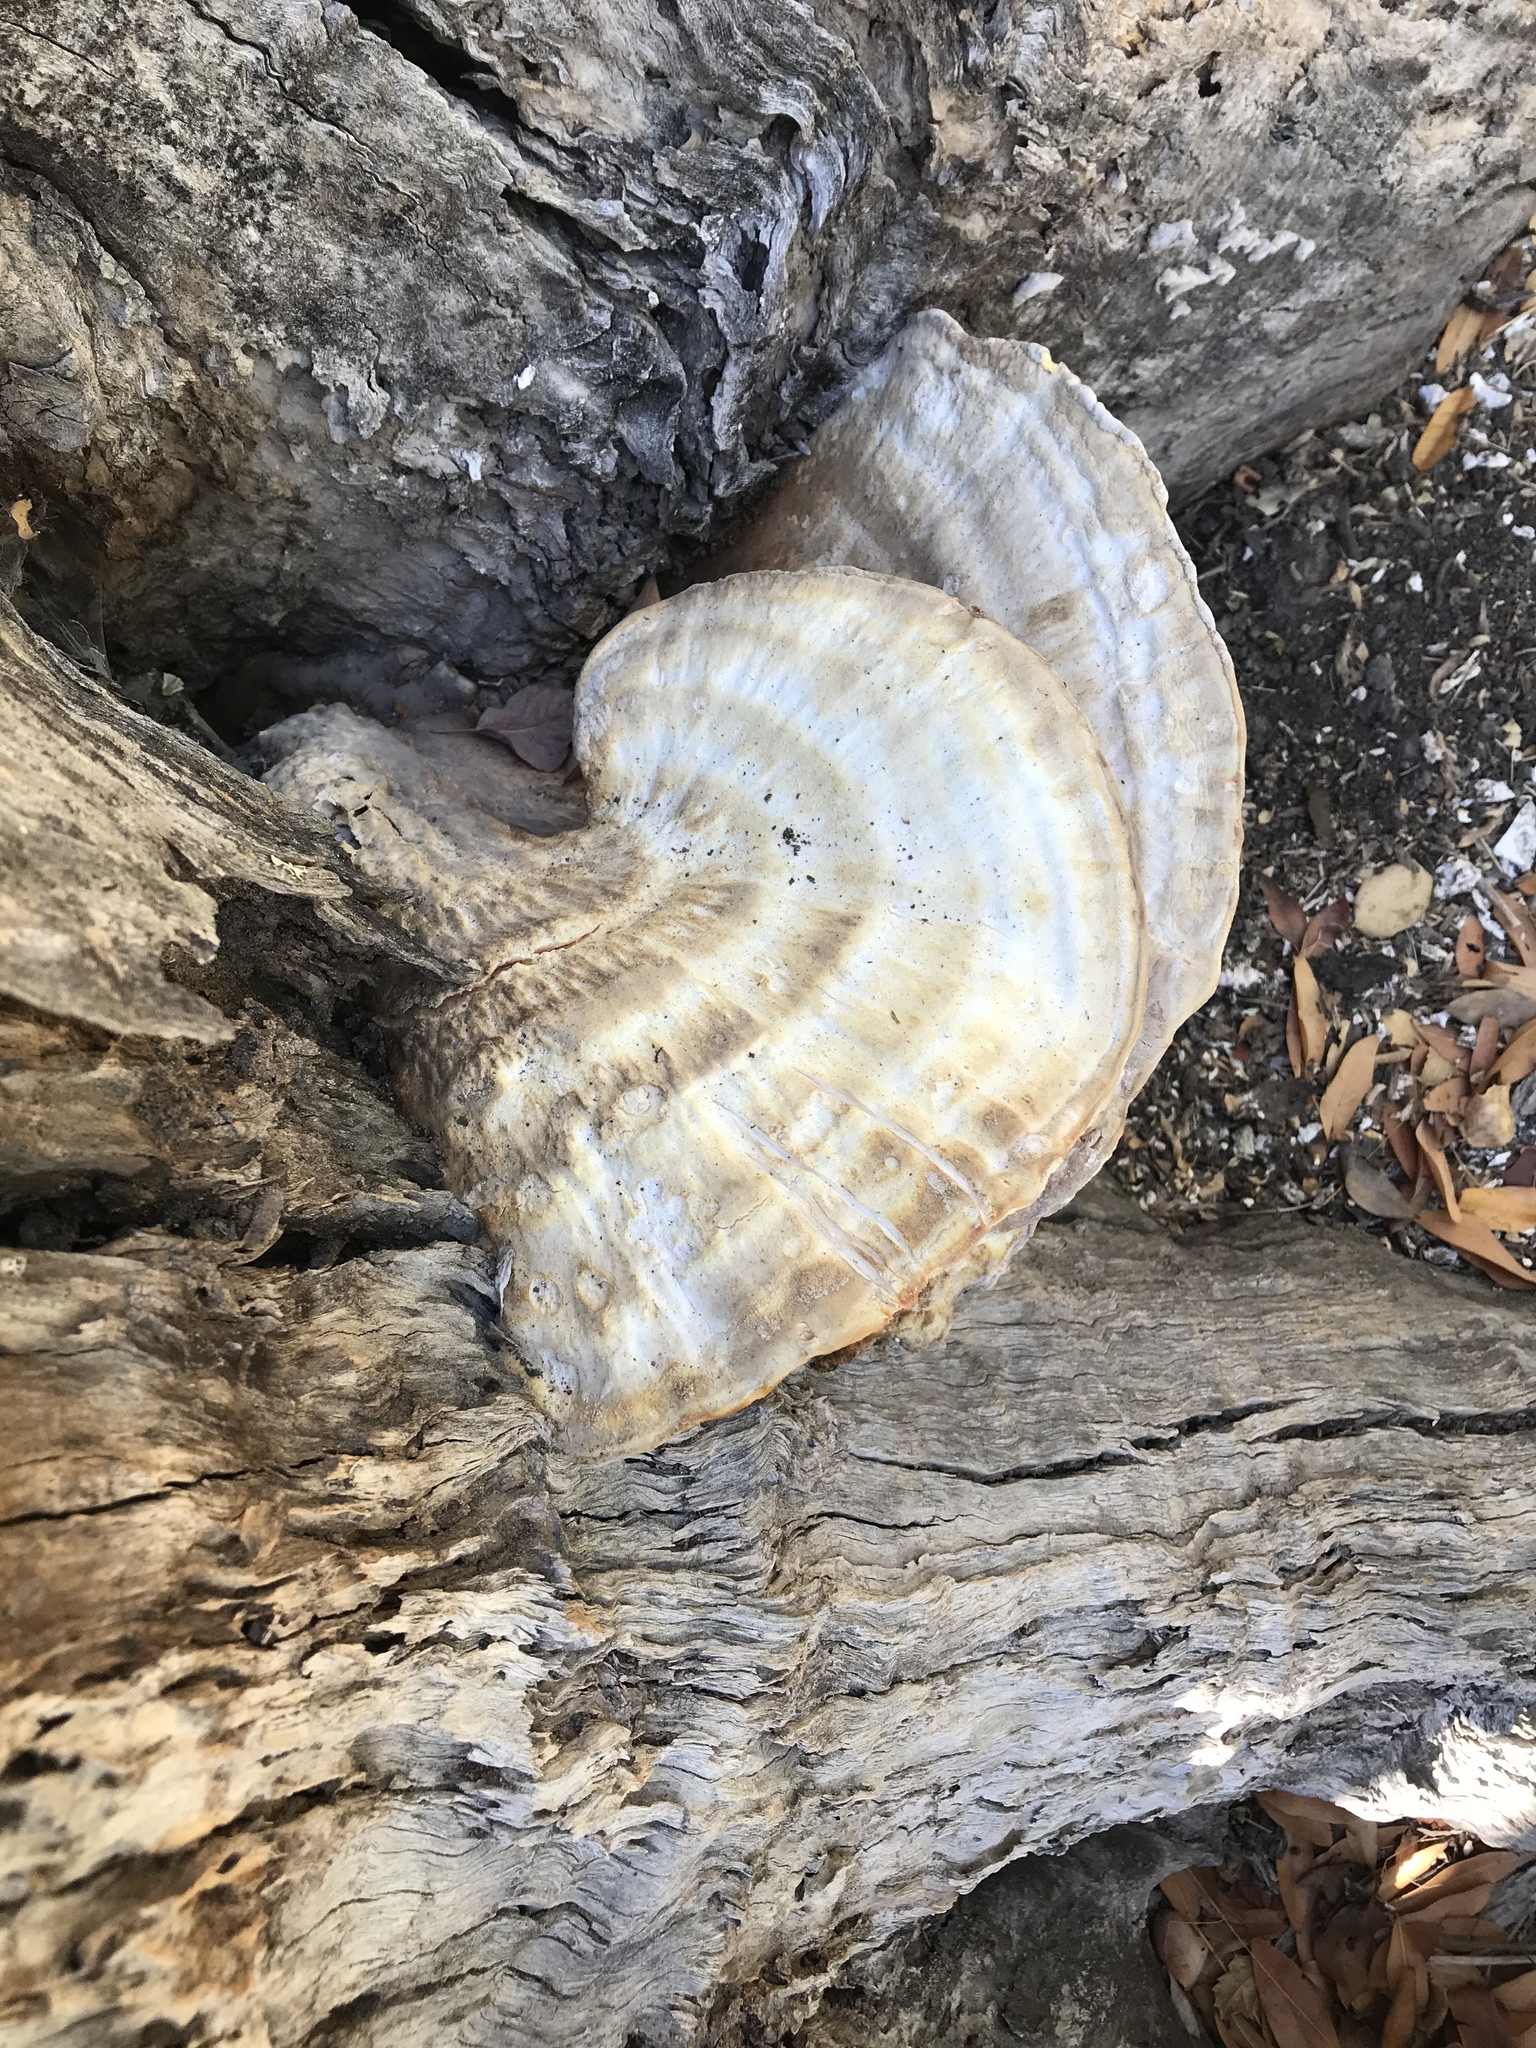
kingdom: Fungi
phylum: Basidiomycota
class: Agaricomycetes
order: Polyporales
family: Laetiporaceae
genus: Laetiporus
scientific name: Laetiporus gilbertsonii
